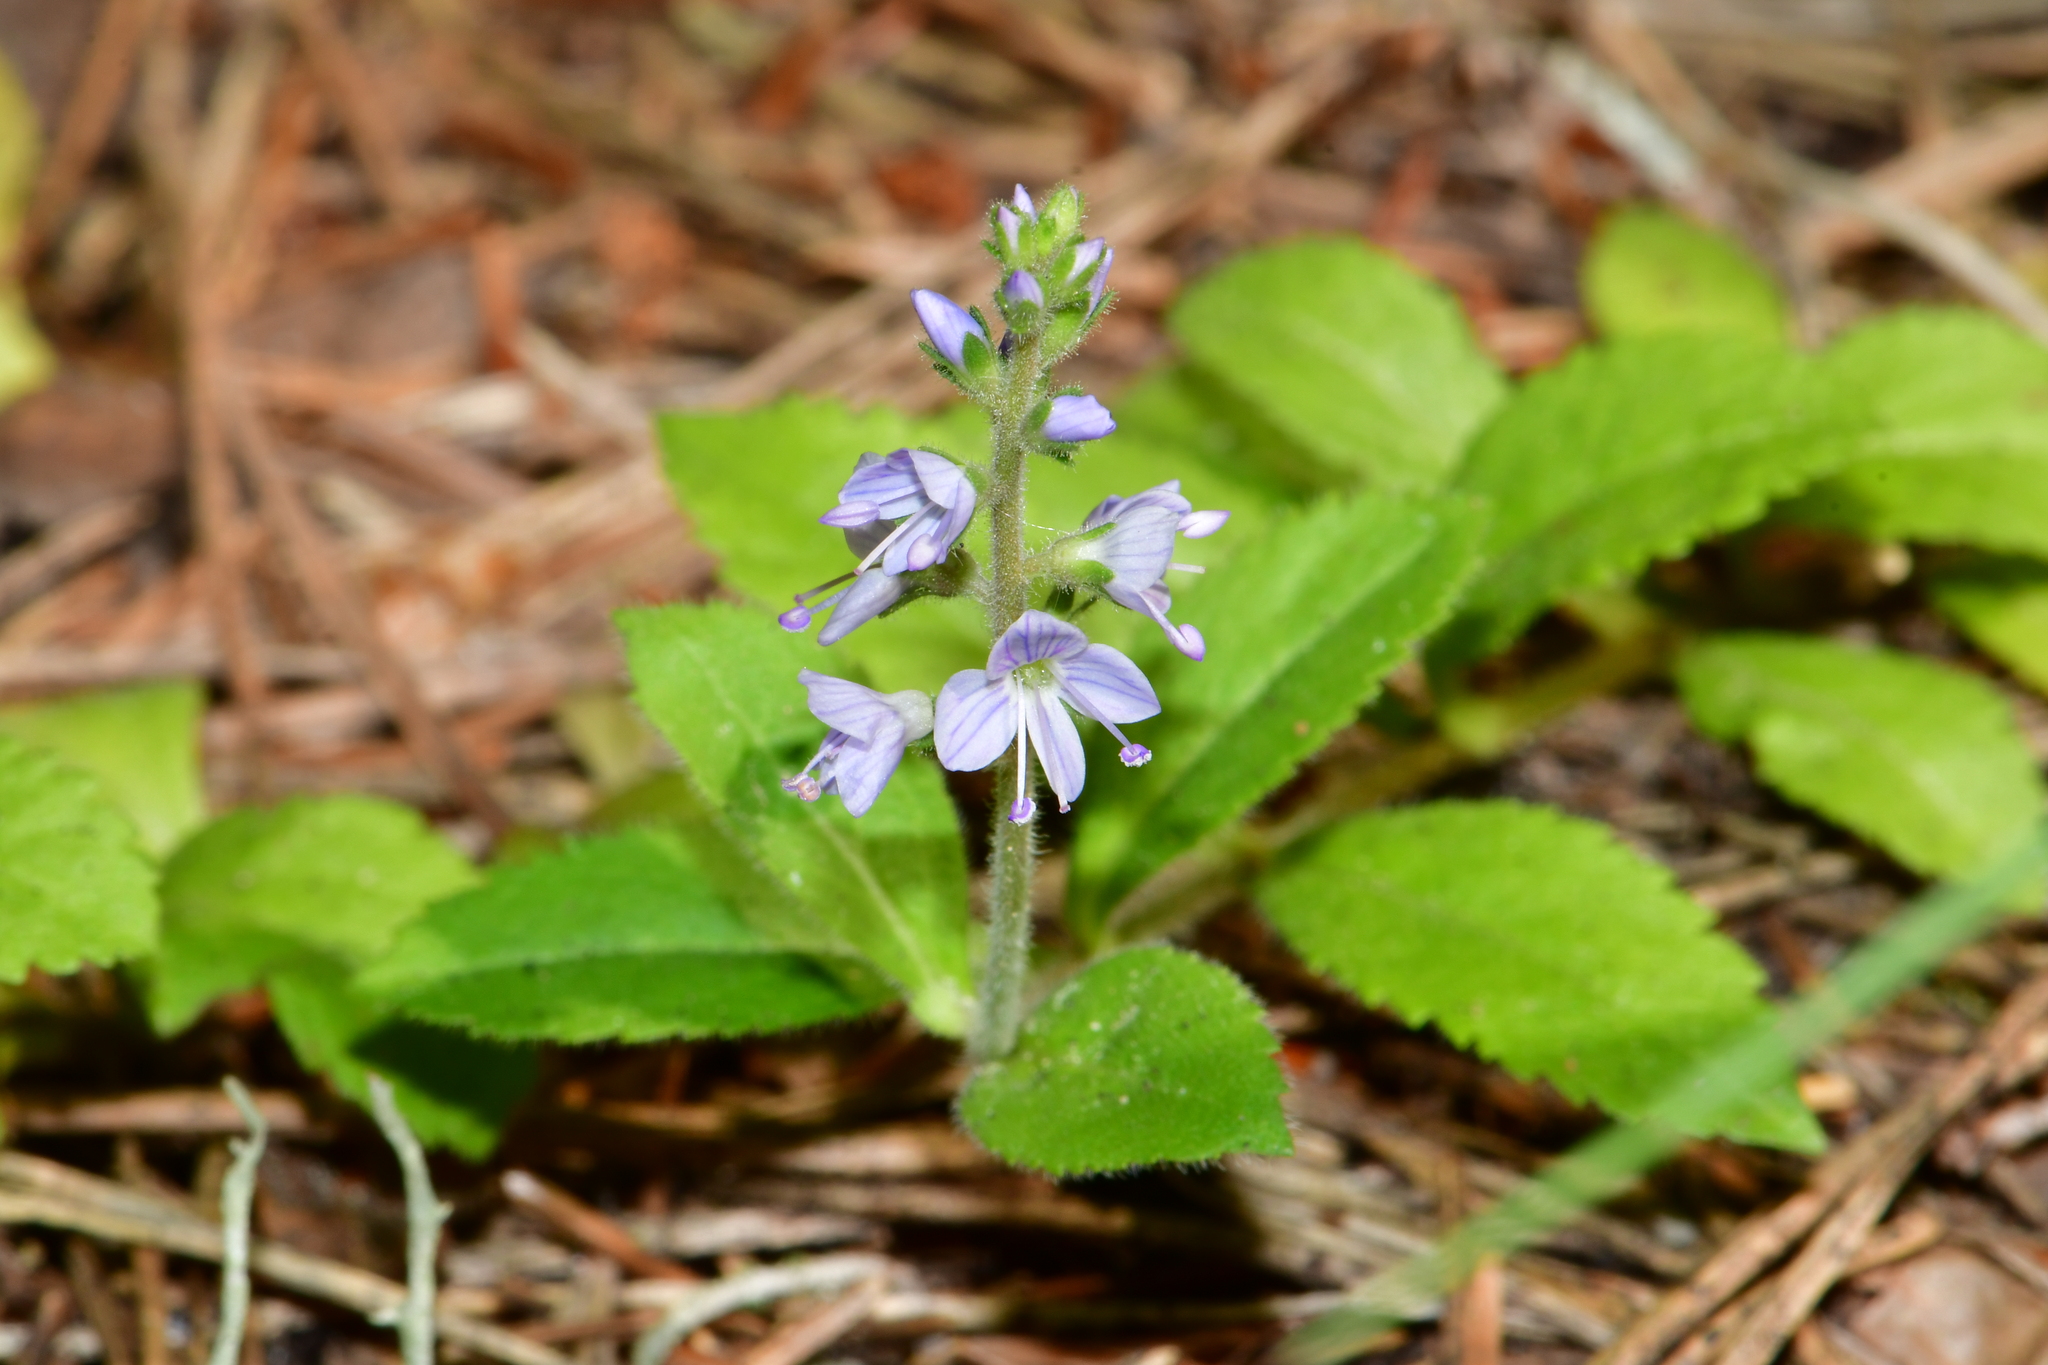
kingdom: Plantae
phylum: Tracheophyta
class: Magnoliopsida
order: Lamiales
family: Plantaginaceae
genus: Veronica
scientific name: Veronica officinalis
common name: Common speedwell
